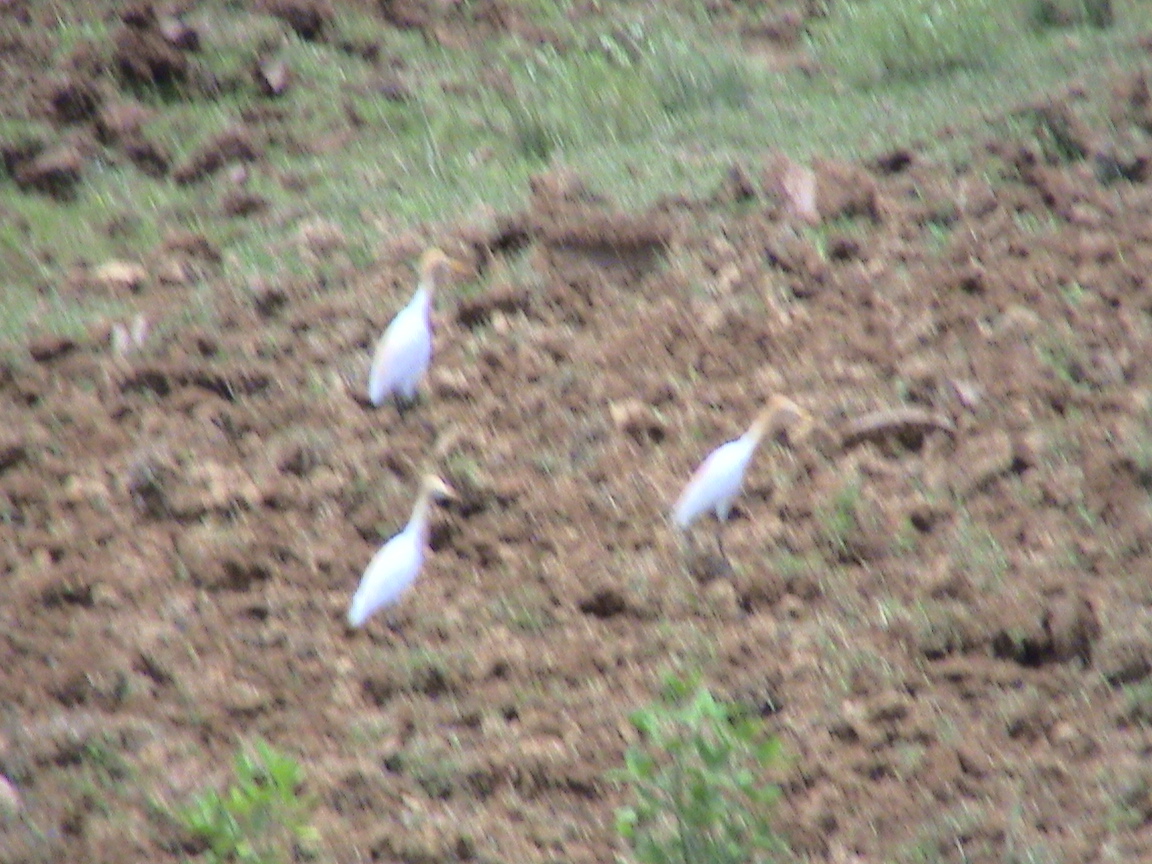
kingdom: Animalia
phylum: Chordata
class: Aves
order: Pelecaniformes
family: Ardeidae
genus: Bubulcus
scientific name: Bubulcus coromandus
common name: Eastern cattle egret
